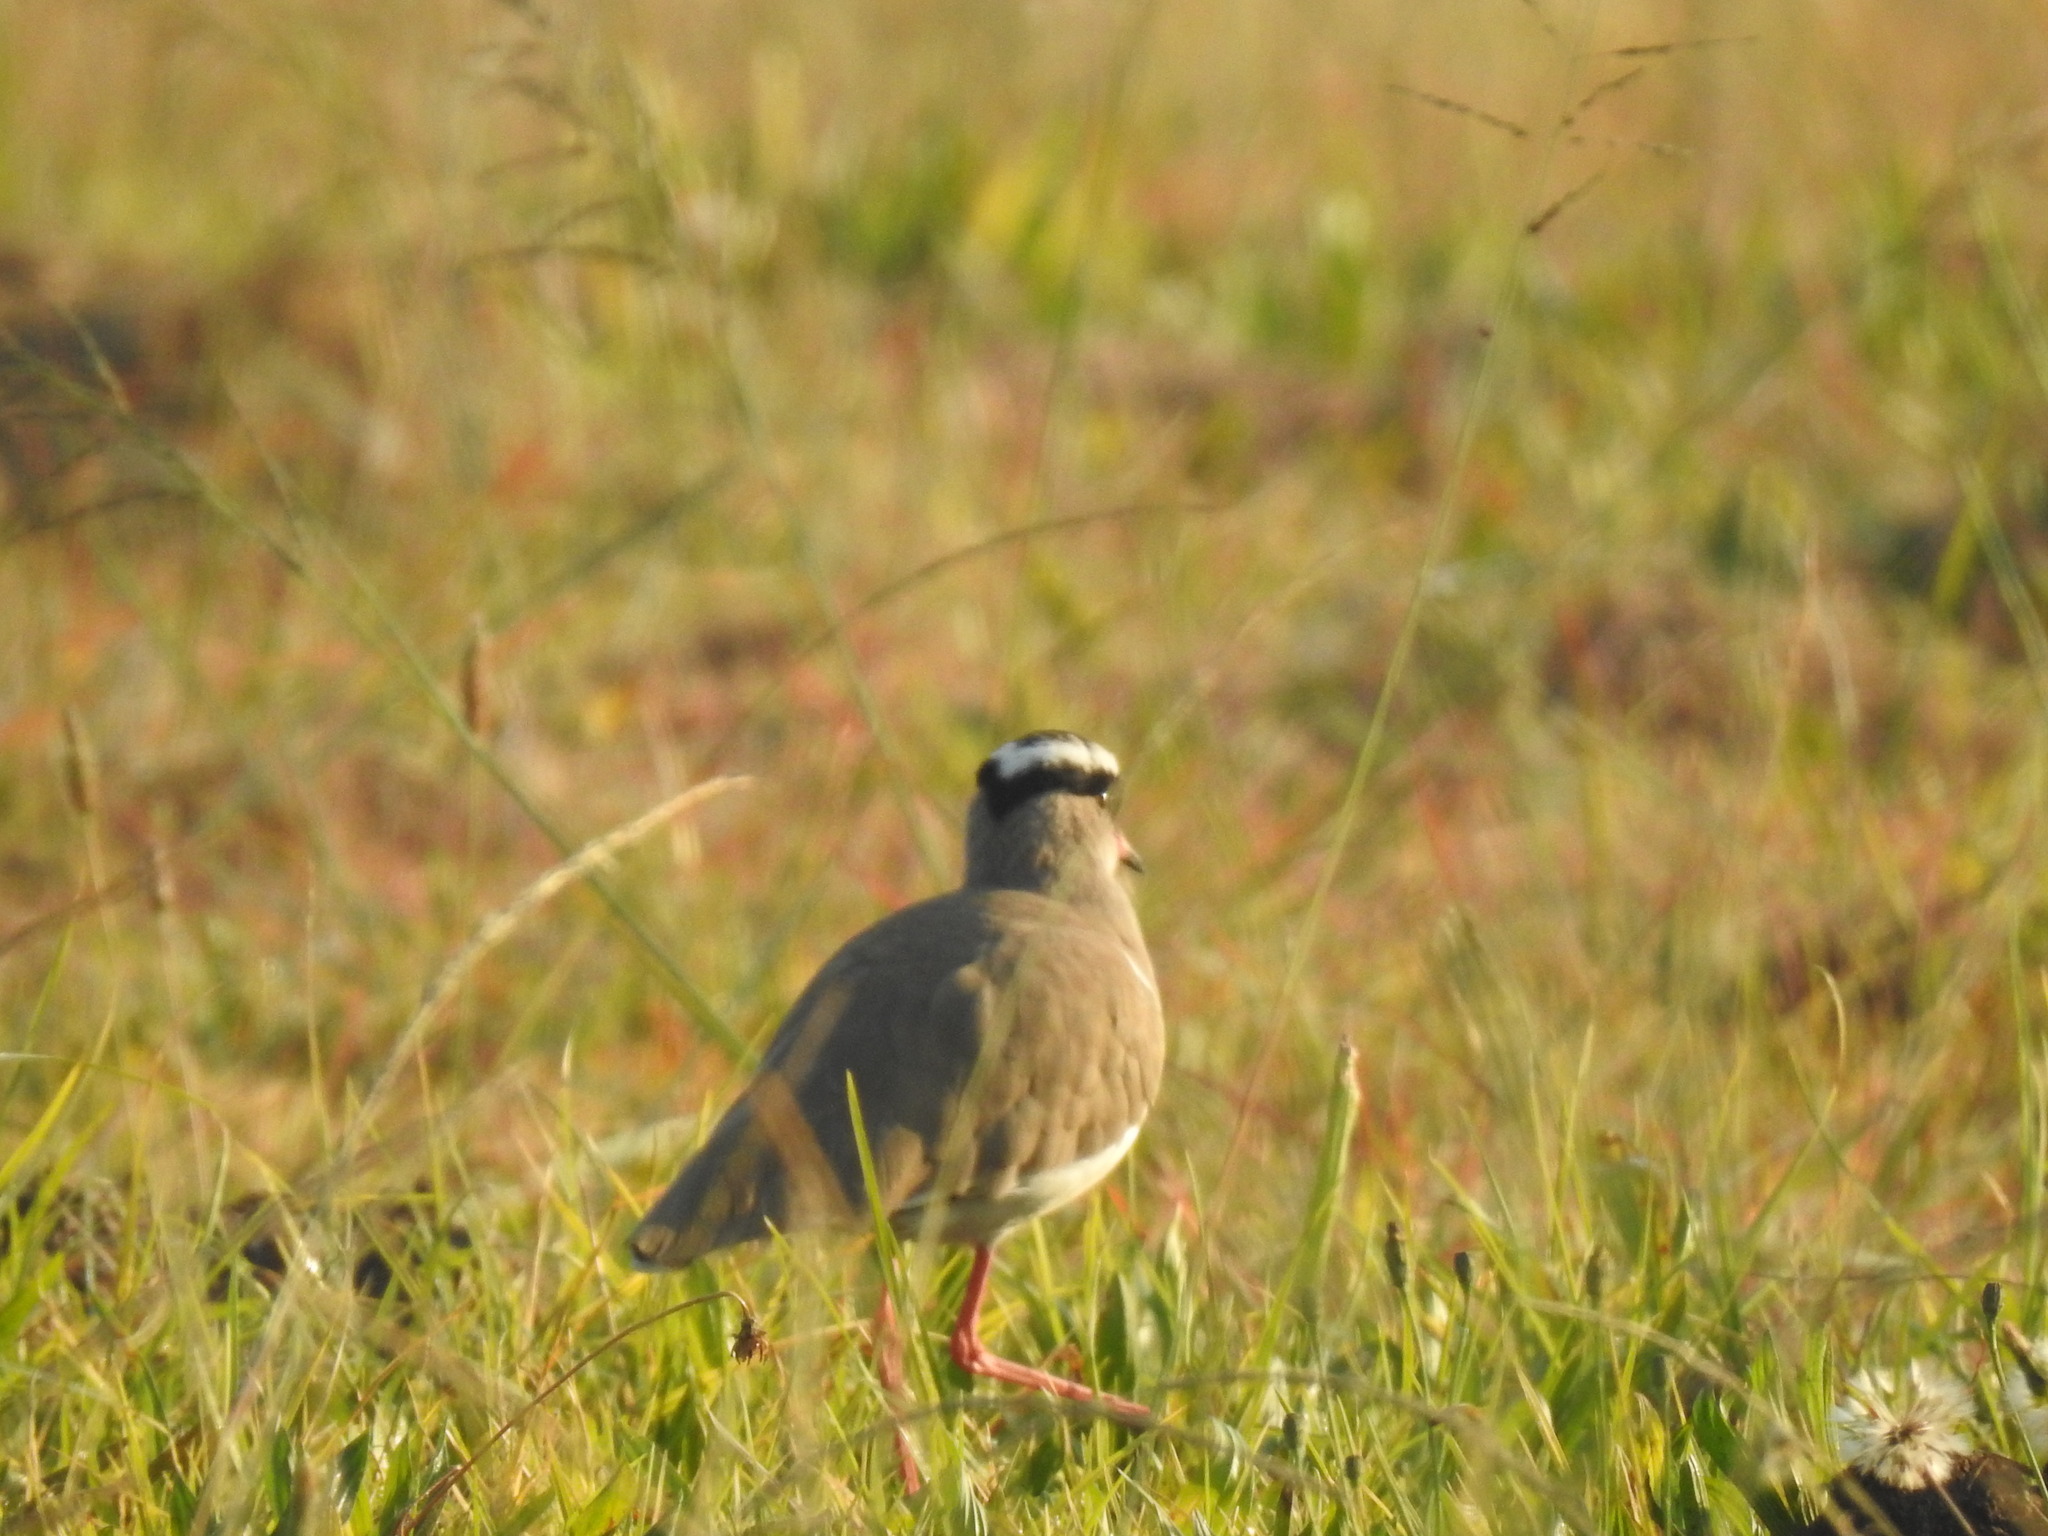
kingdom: Animalia
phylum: Chordata
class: Aves
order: Charadriiformes
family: Charadriidae
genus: Vanellus
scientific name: Vanellus coronatus
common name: Crowned lapwing
